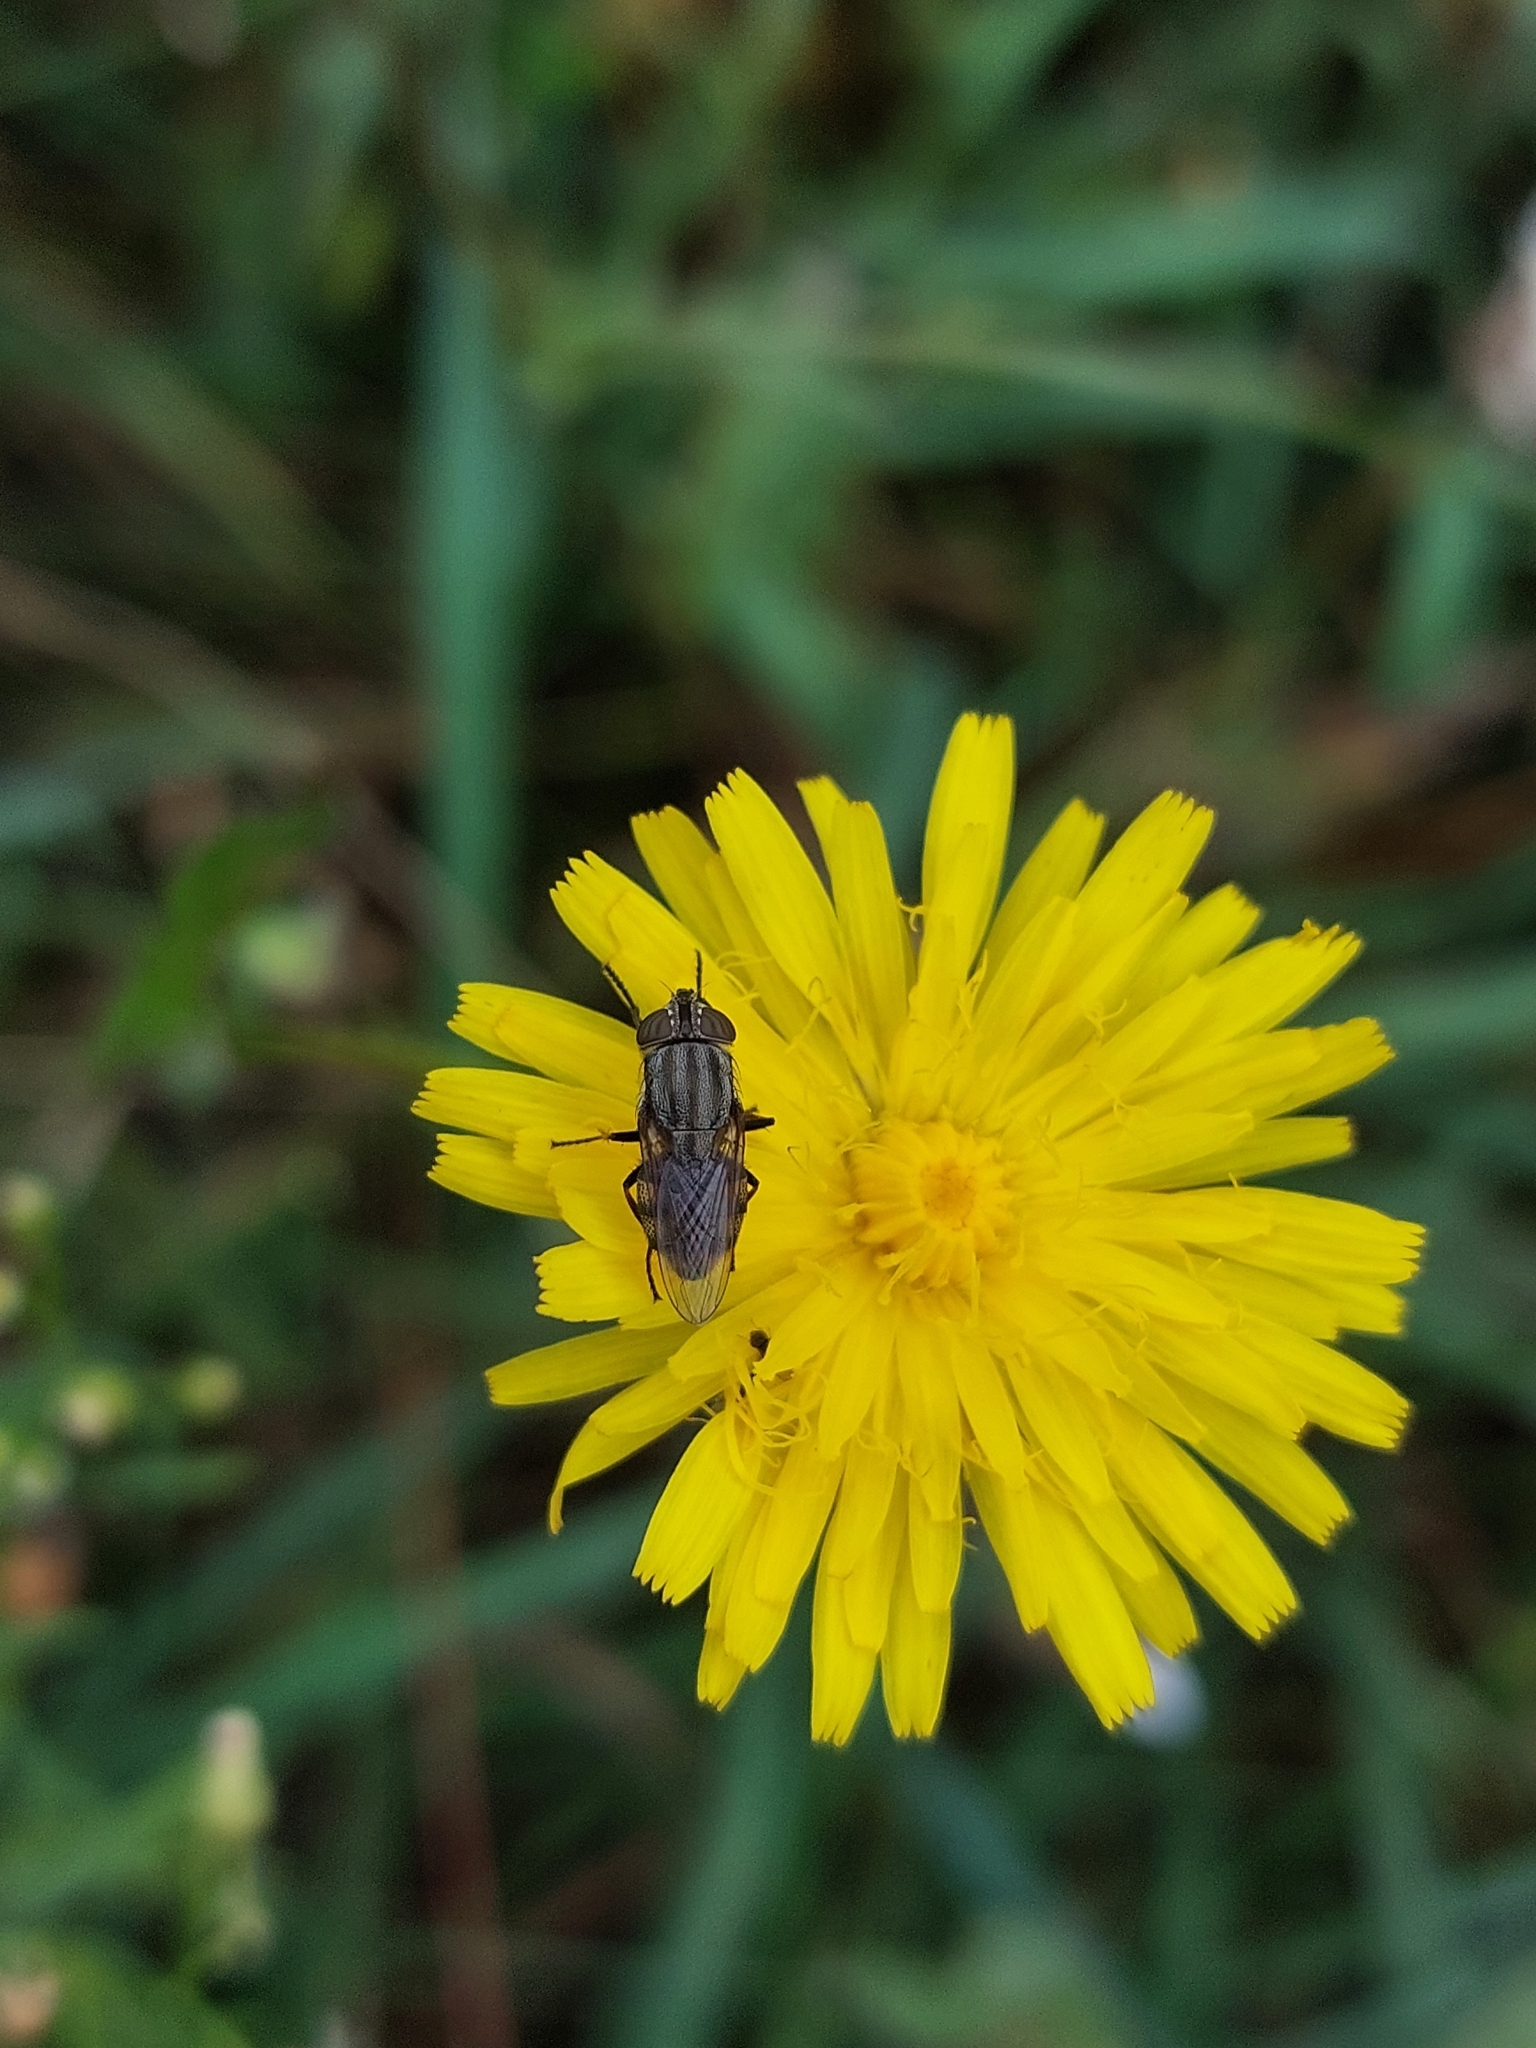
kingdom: Animalia
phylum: Arthropoda
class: Insecta
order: Diptera
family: Calliphoridae
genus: Stomorhina
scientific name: Stomorhina lunata
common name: Locust blowfly
